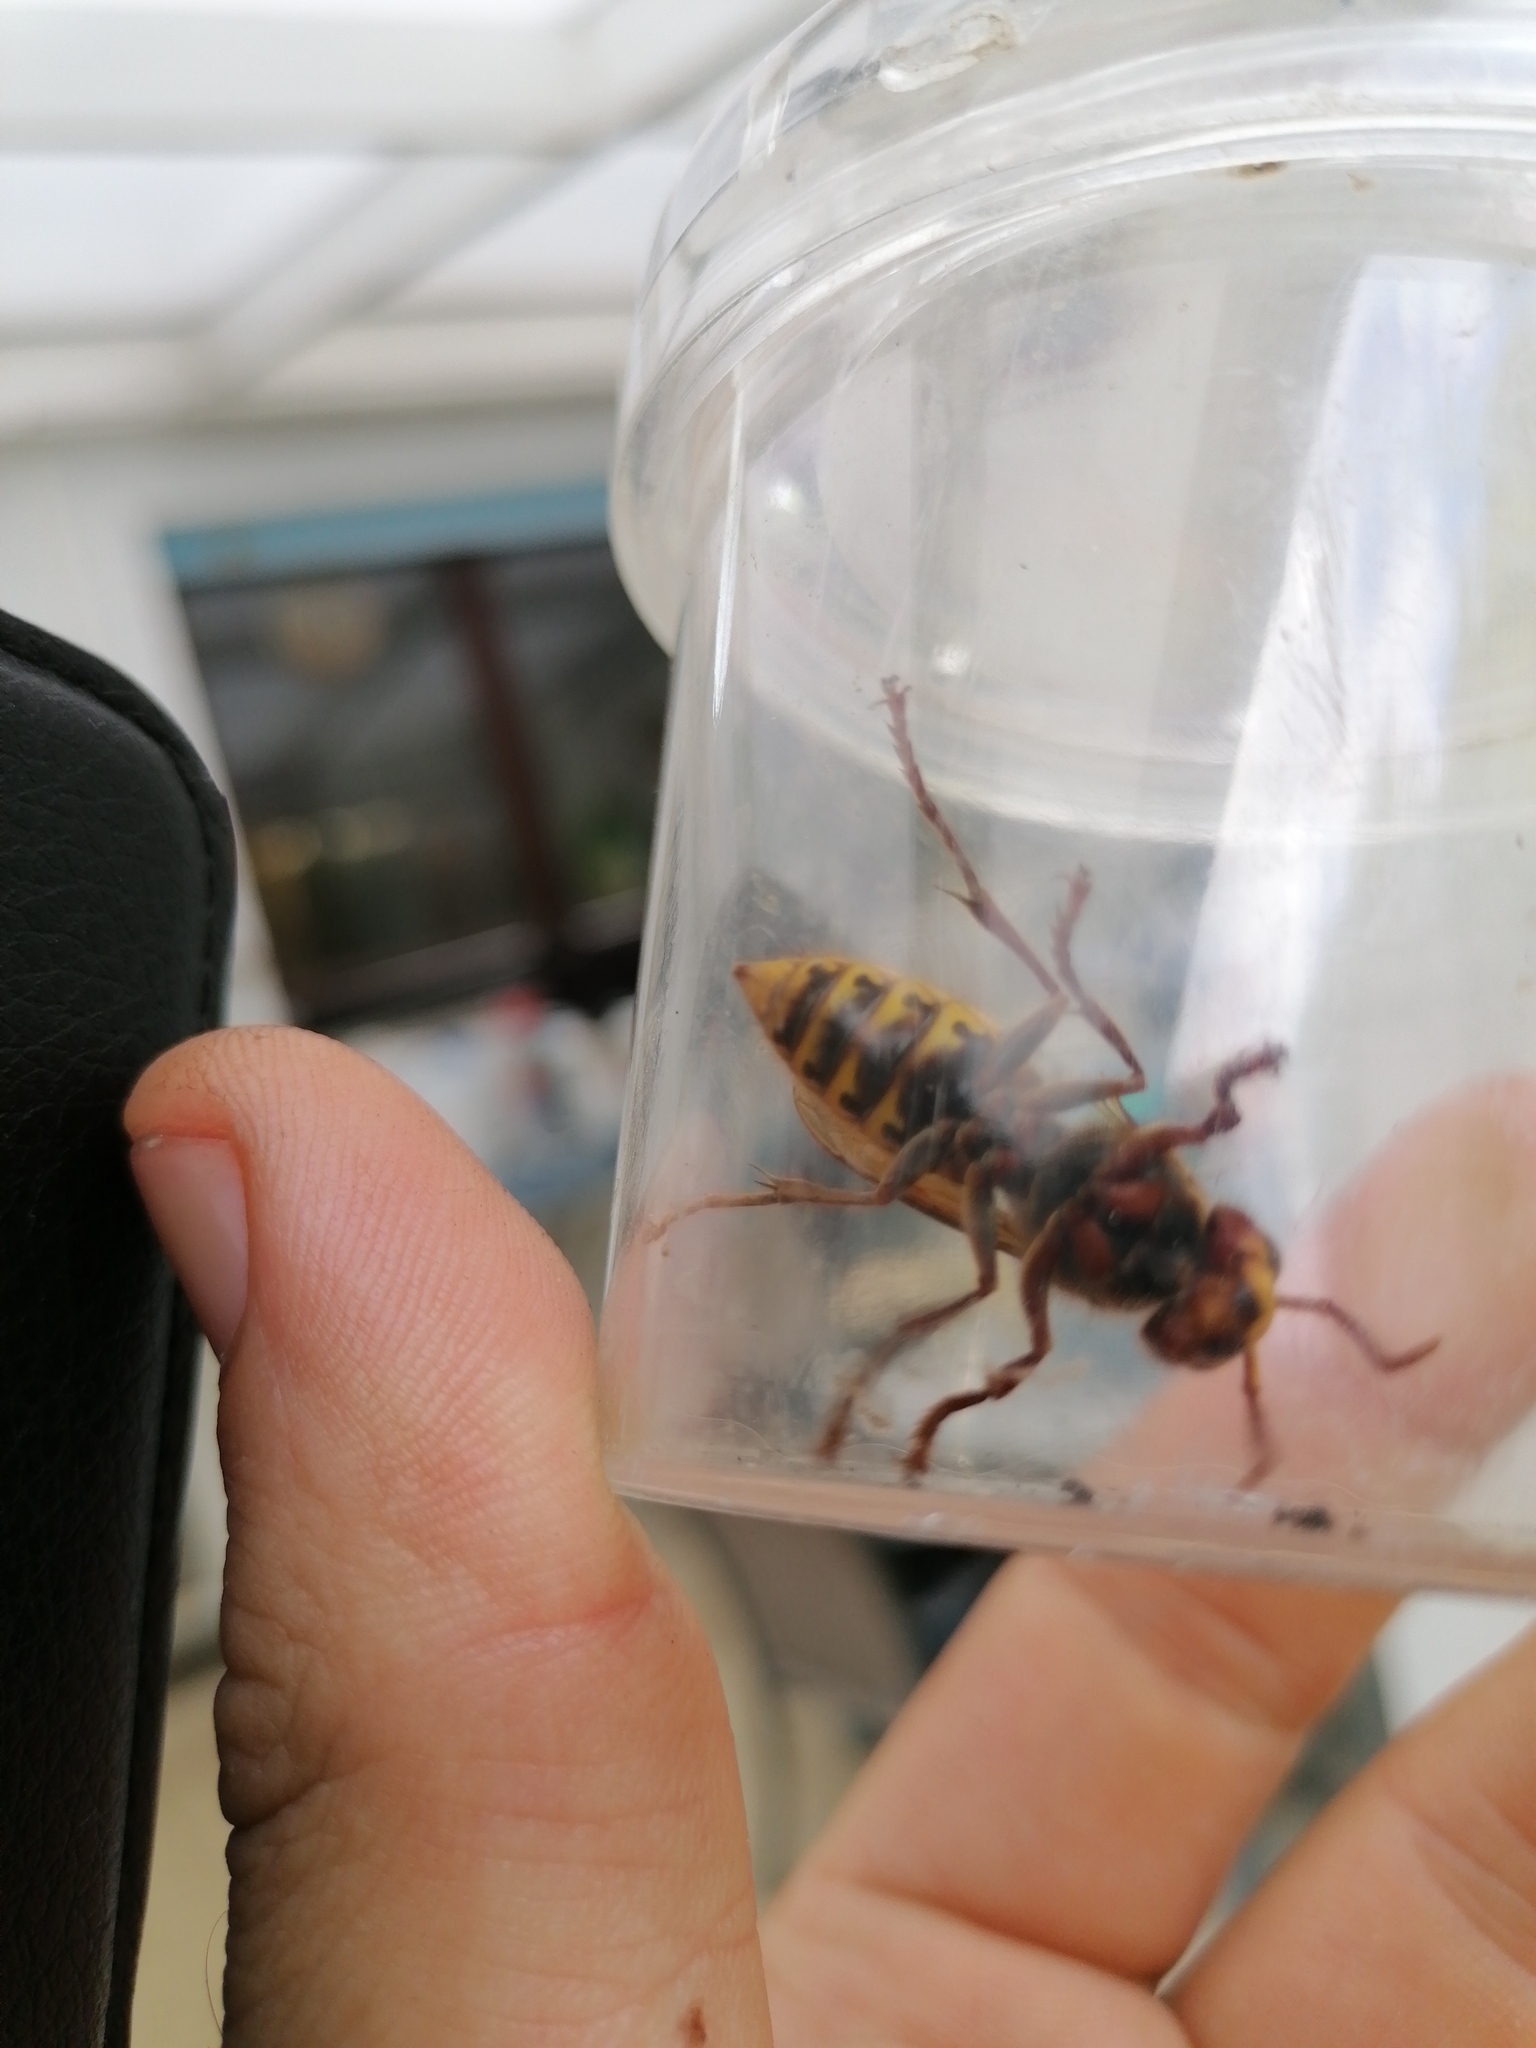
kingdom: Animalia
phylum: Arthropoda
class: Insecta
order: Hymenoptera
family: Vespidae
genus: Vespa
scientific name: Vespa crabro
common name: Hornet
